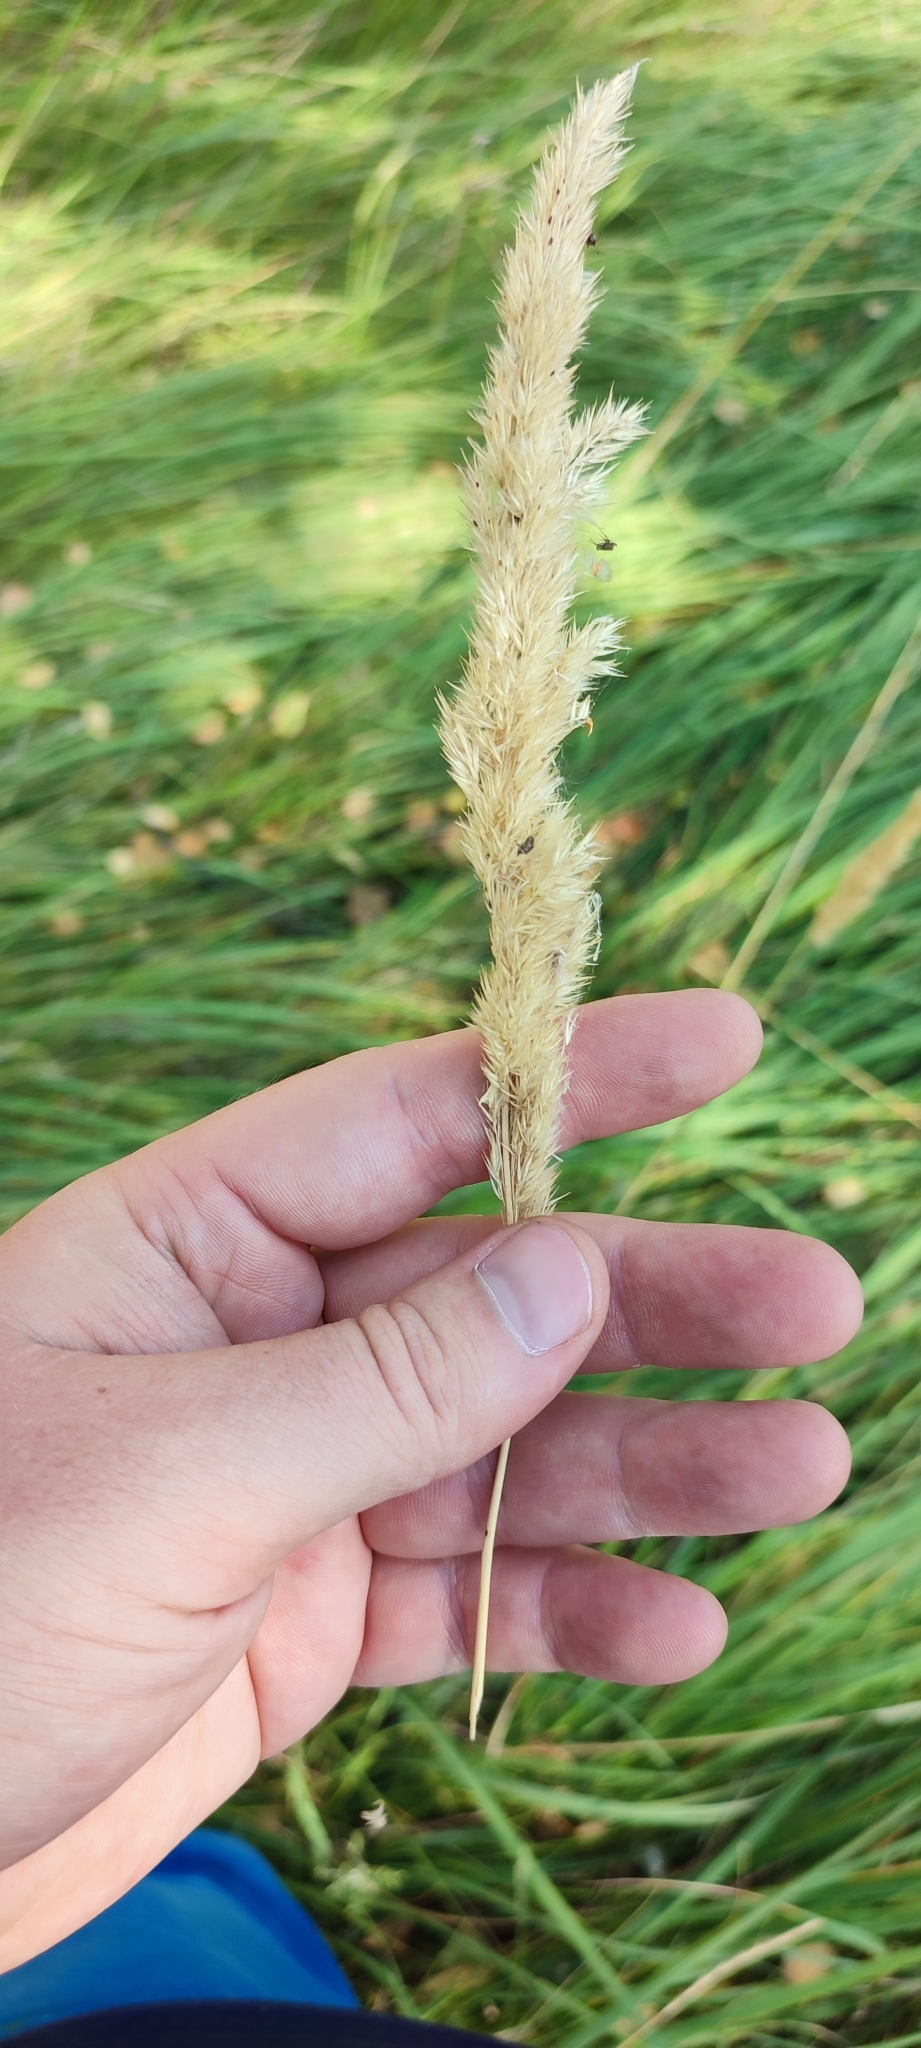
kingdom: Plantae
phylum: Tracheophyta
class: Liliopsida
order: Poales
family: Poaceae
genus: Calamagrostis
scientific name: Calamagrostis epigejos
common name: Wood small-reed
